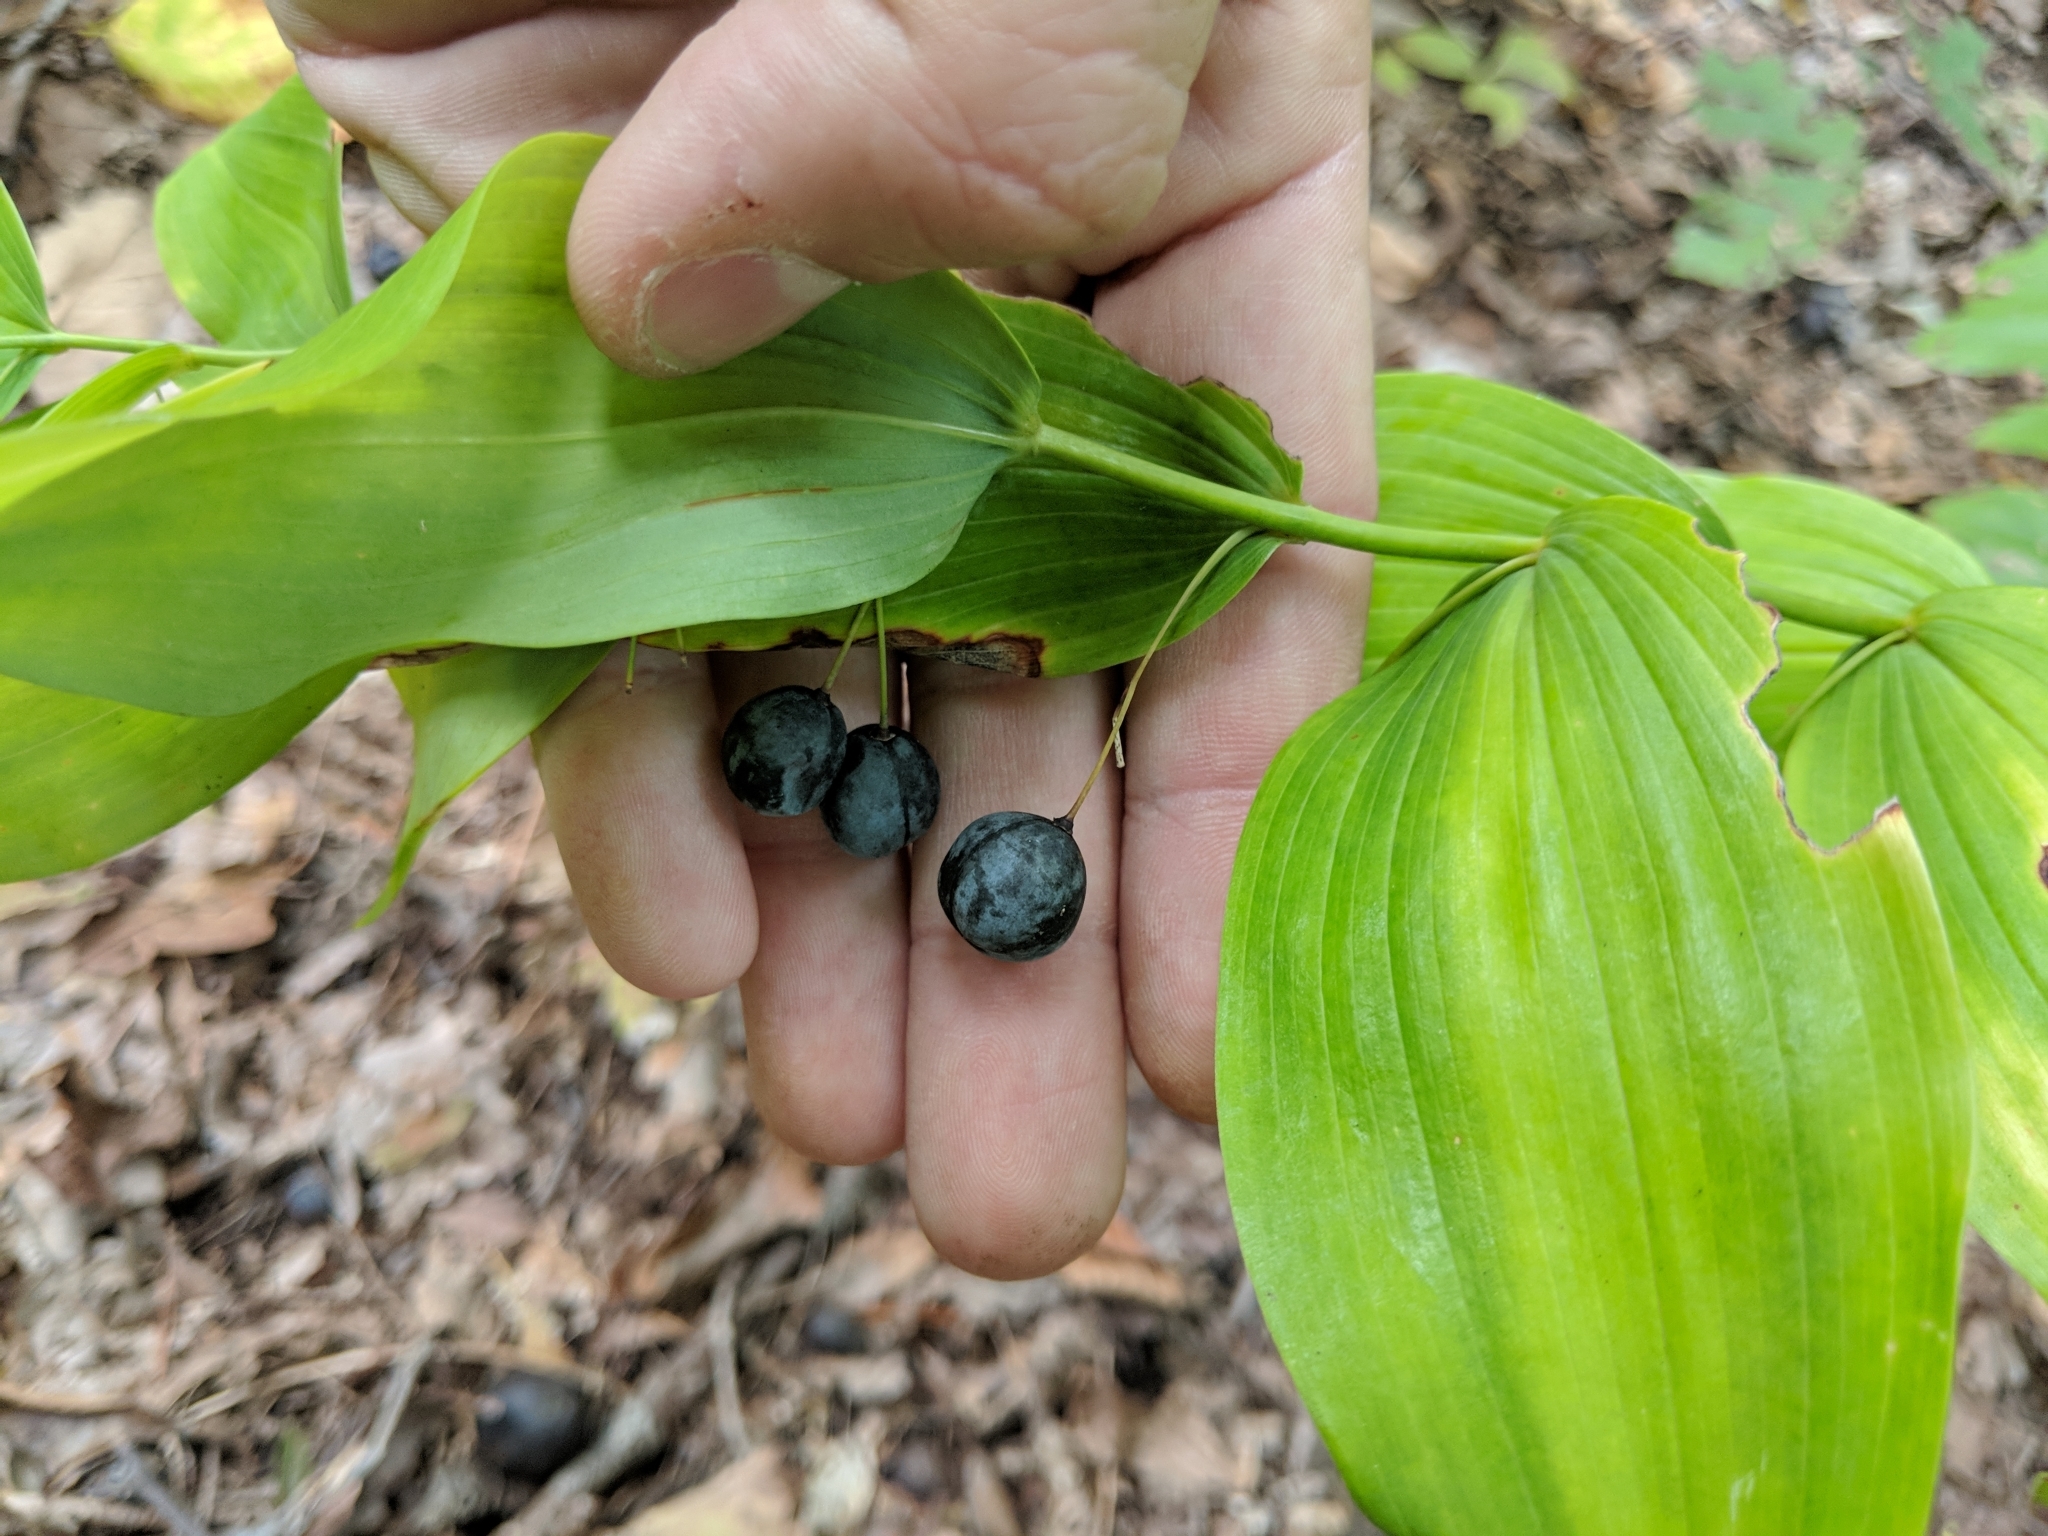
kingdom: Plantae
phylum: Tracheophyta
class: Liliopsida
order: Asparagales
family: Asparagaceae
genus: Polygonatum
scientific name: Polygonatum biflorum
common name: American solomon's-seal
